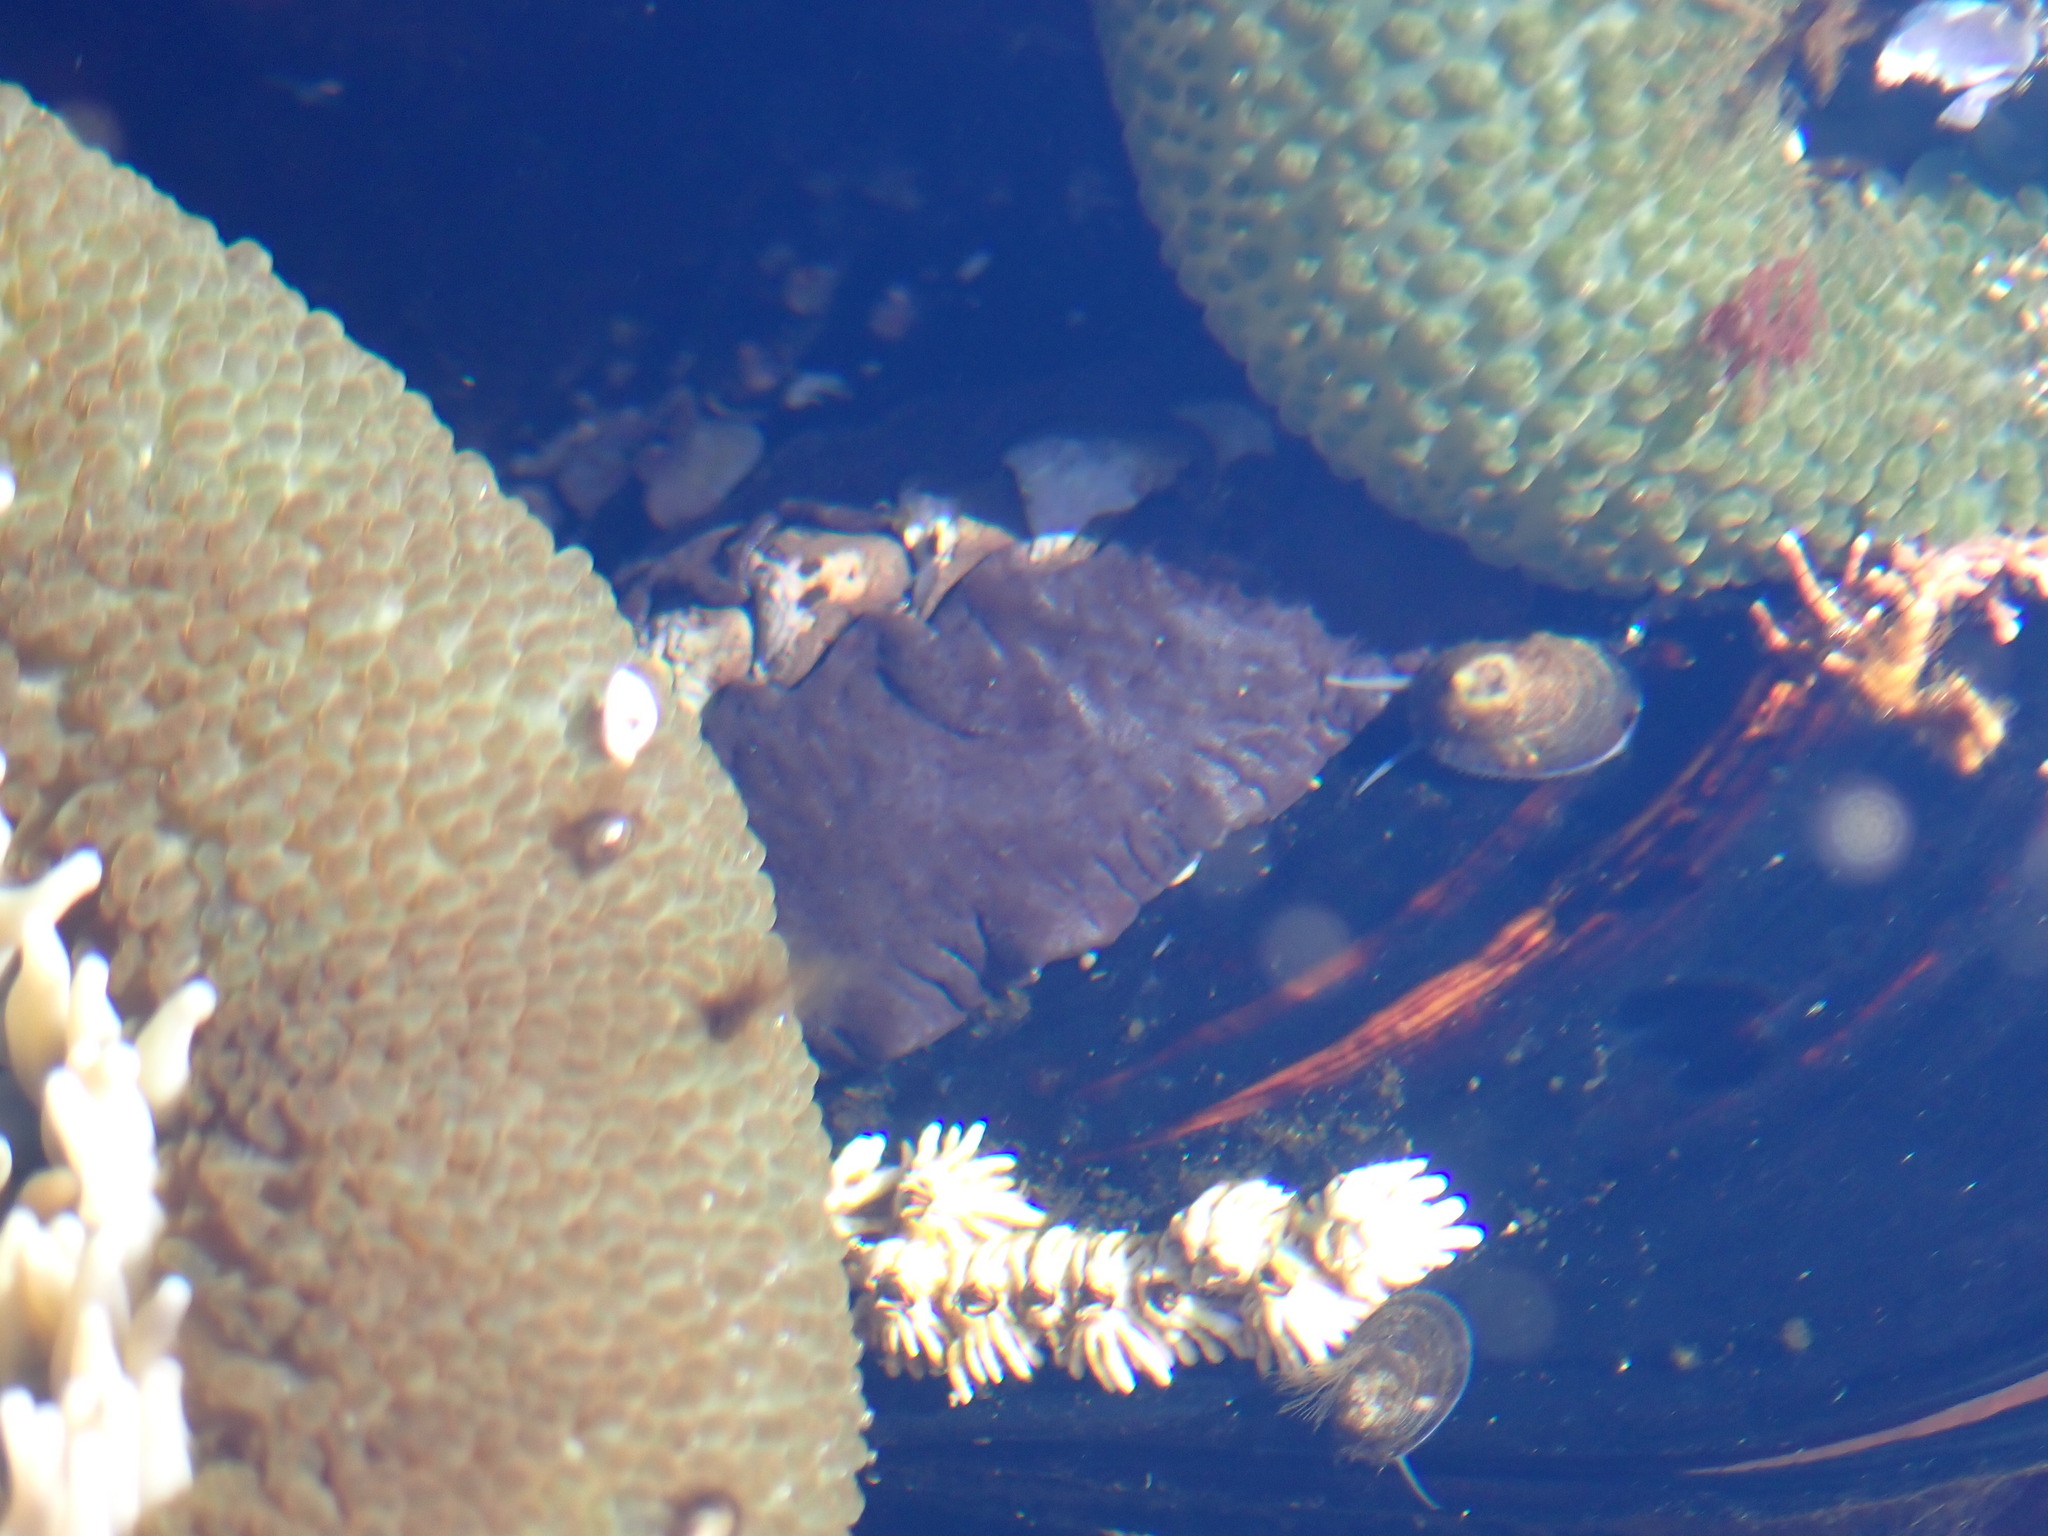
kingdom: Animalia
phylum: Mollusca
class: Polyplacophora
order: Chitonida
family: Mopaliidae
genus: Katharina
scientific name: Katharina tunicata
